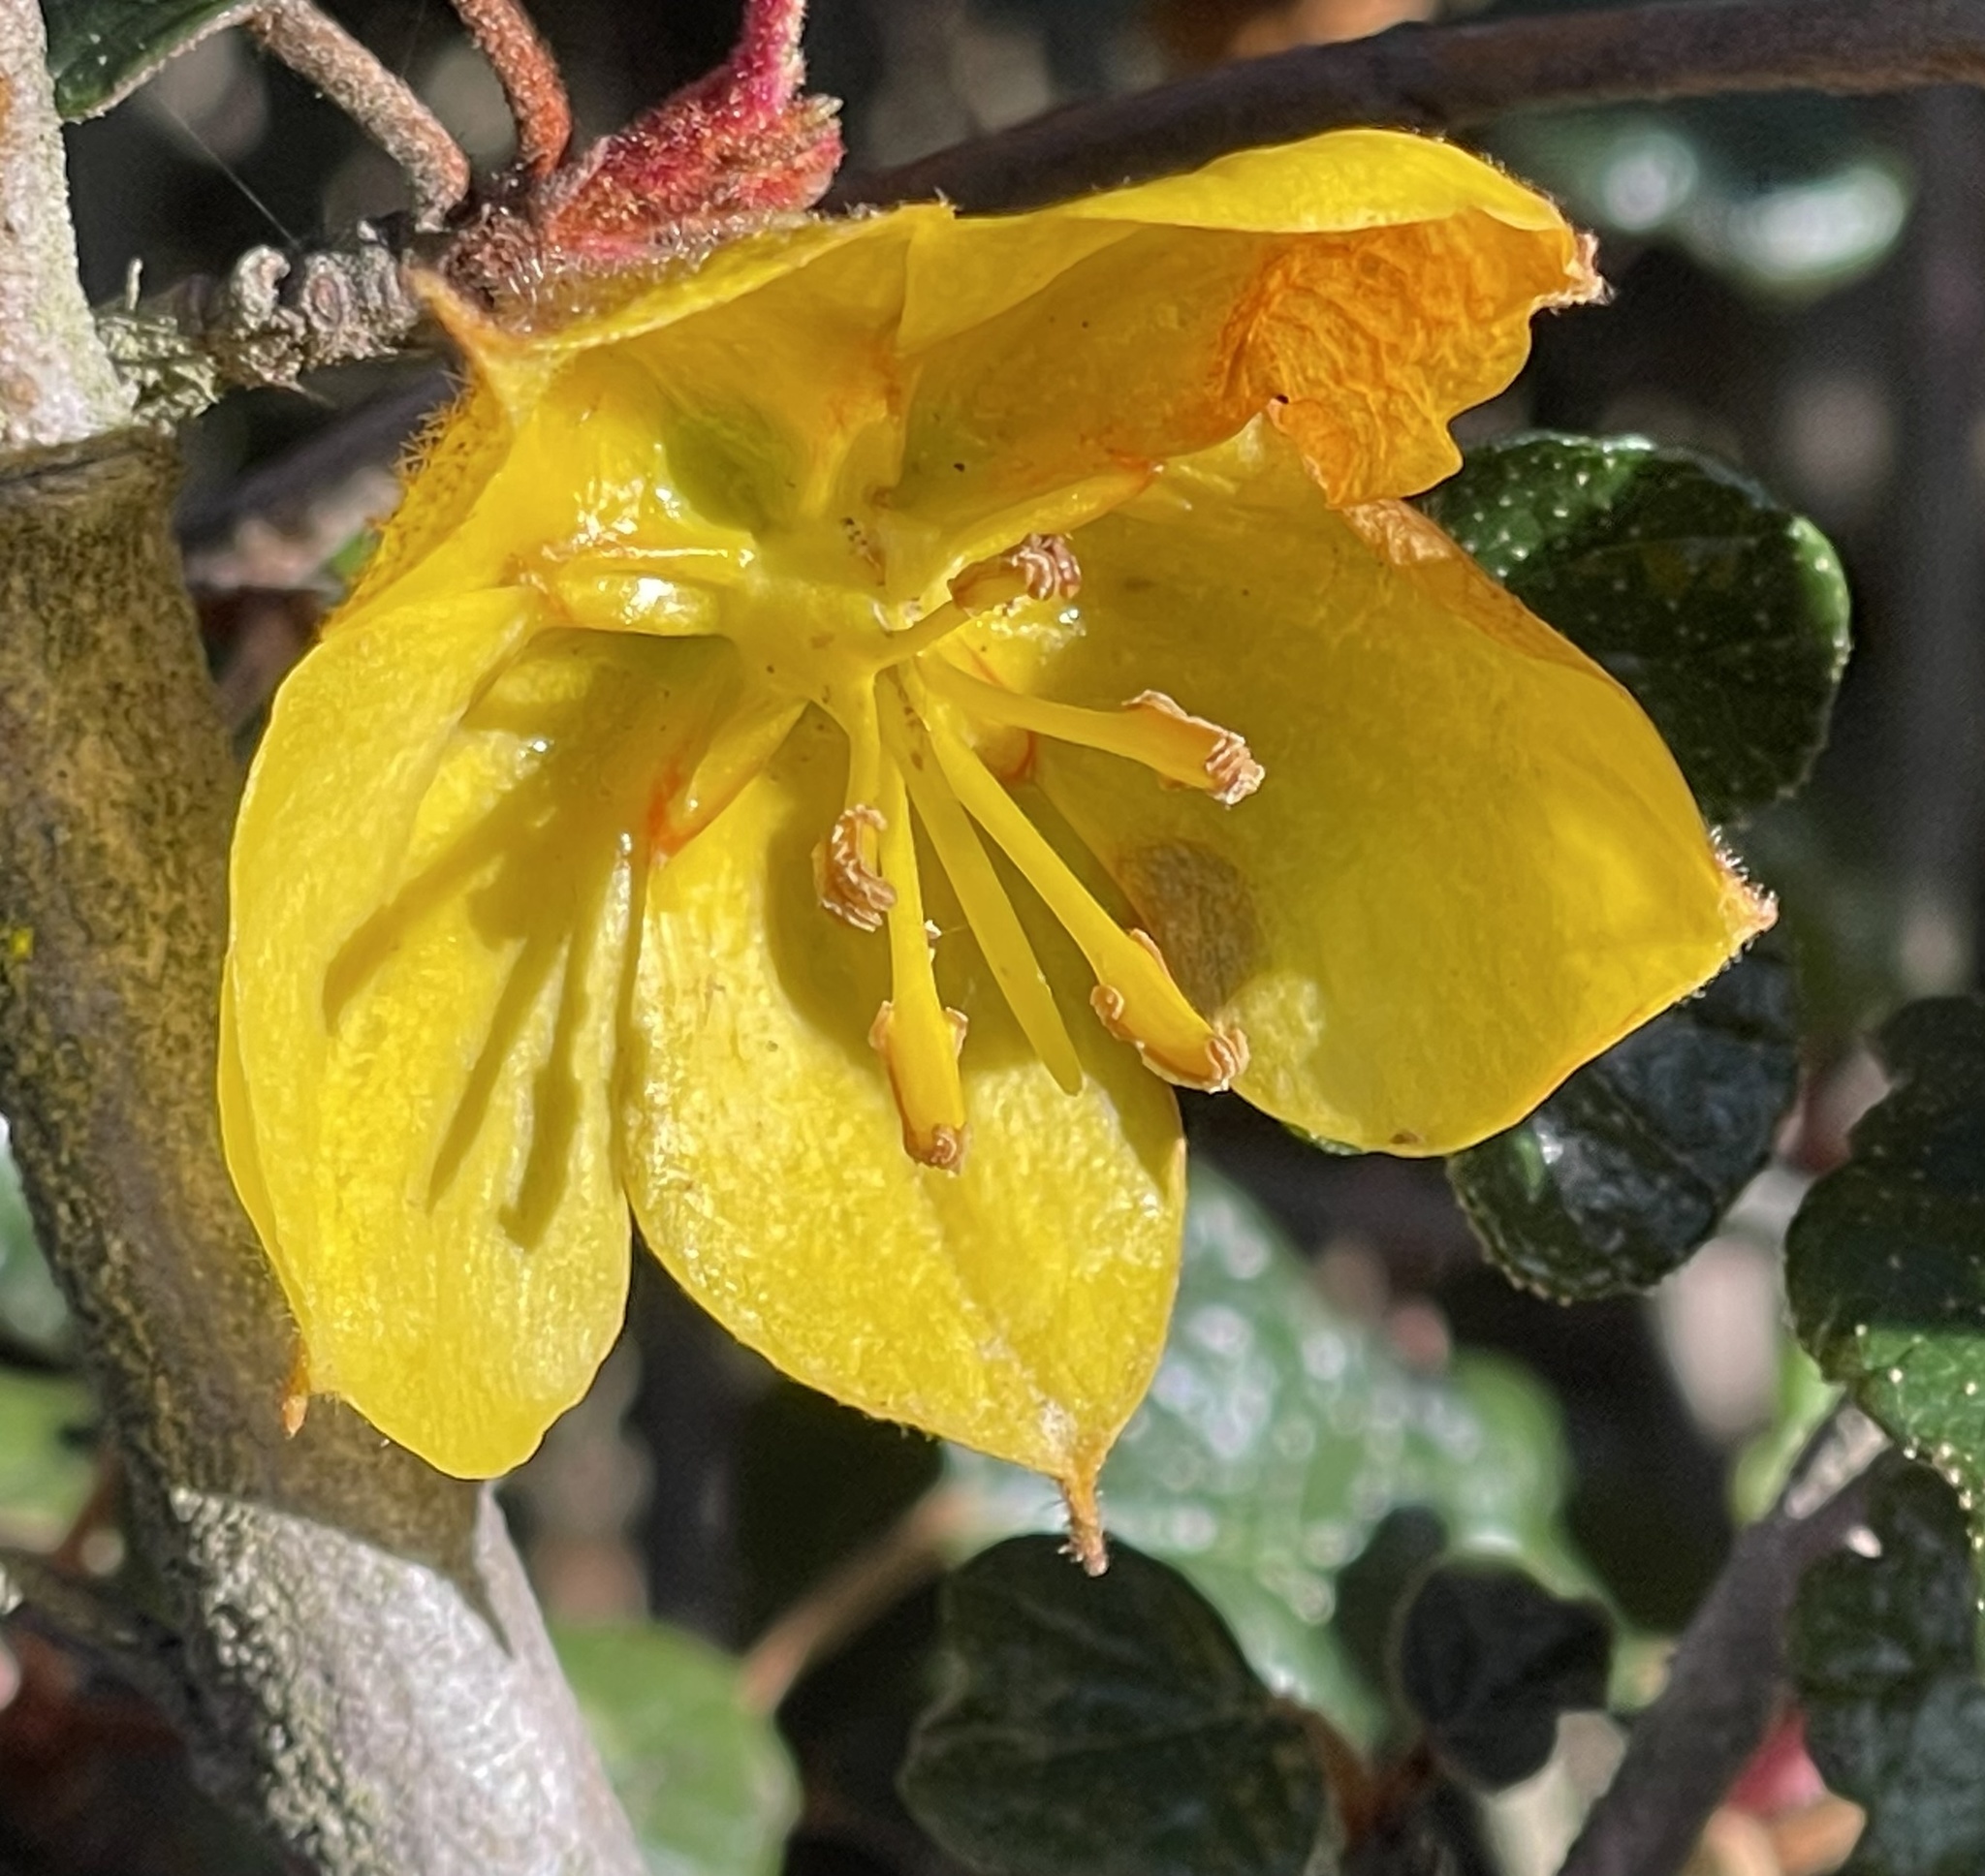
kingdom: Plantae
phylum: Tracheophyta
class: Magnoliopsida
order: Malvales
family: Malvaceae
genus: Fremontodendron
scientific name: Fremontodendron californicum
